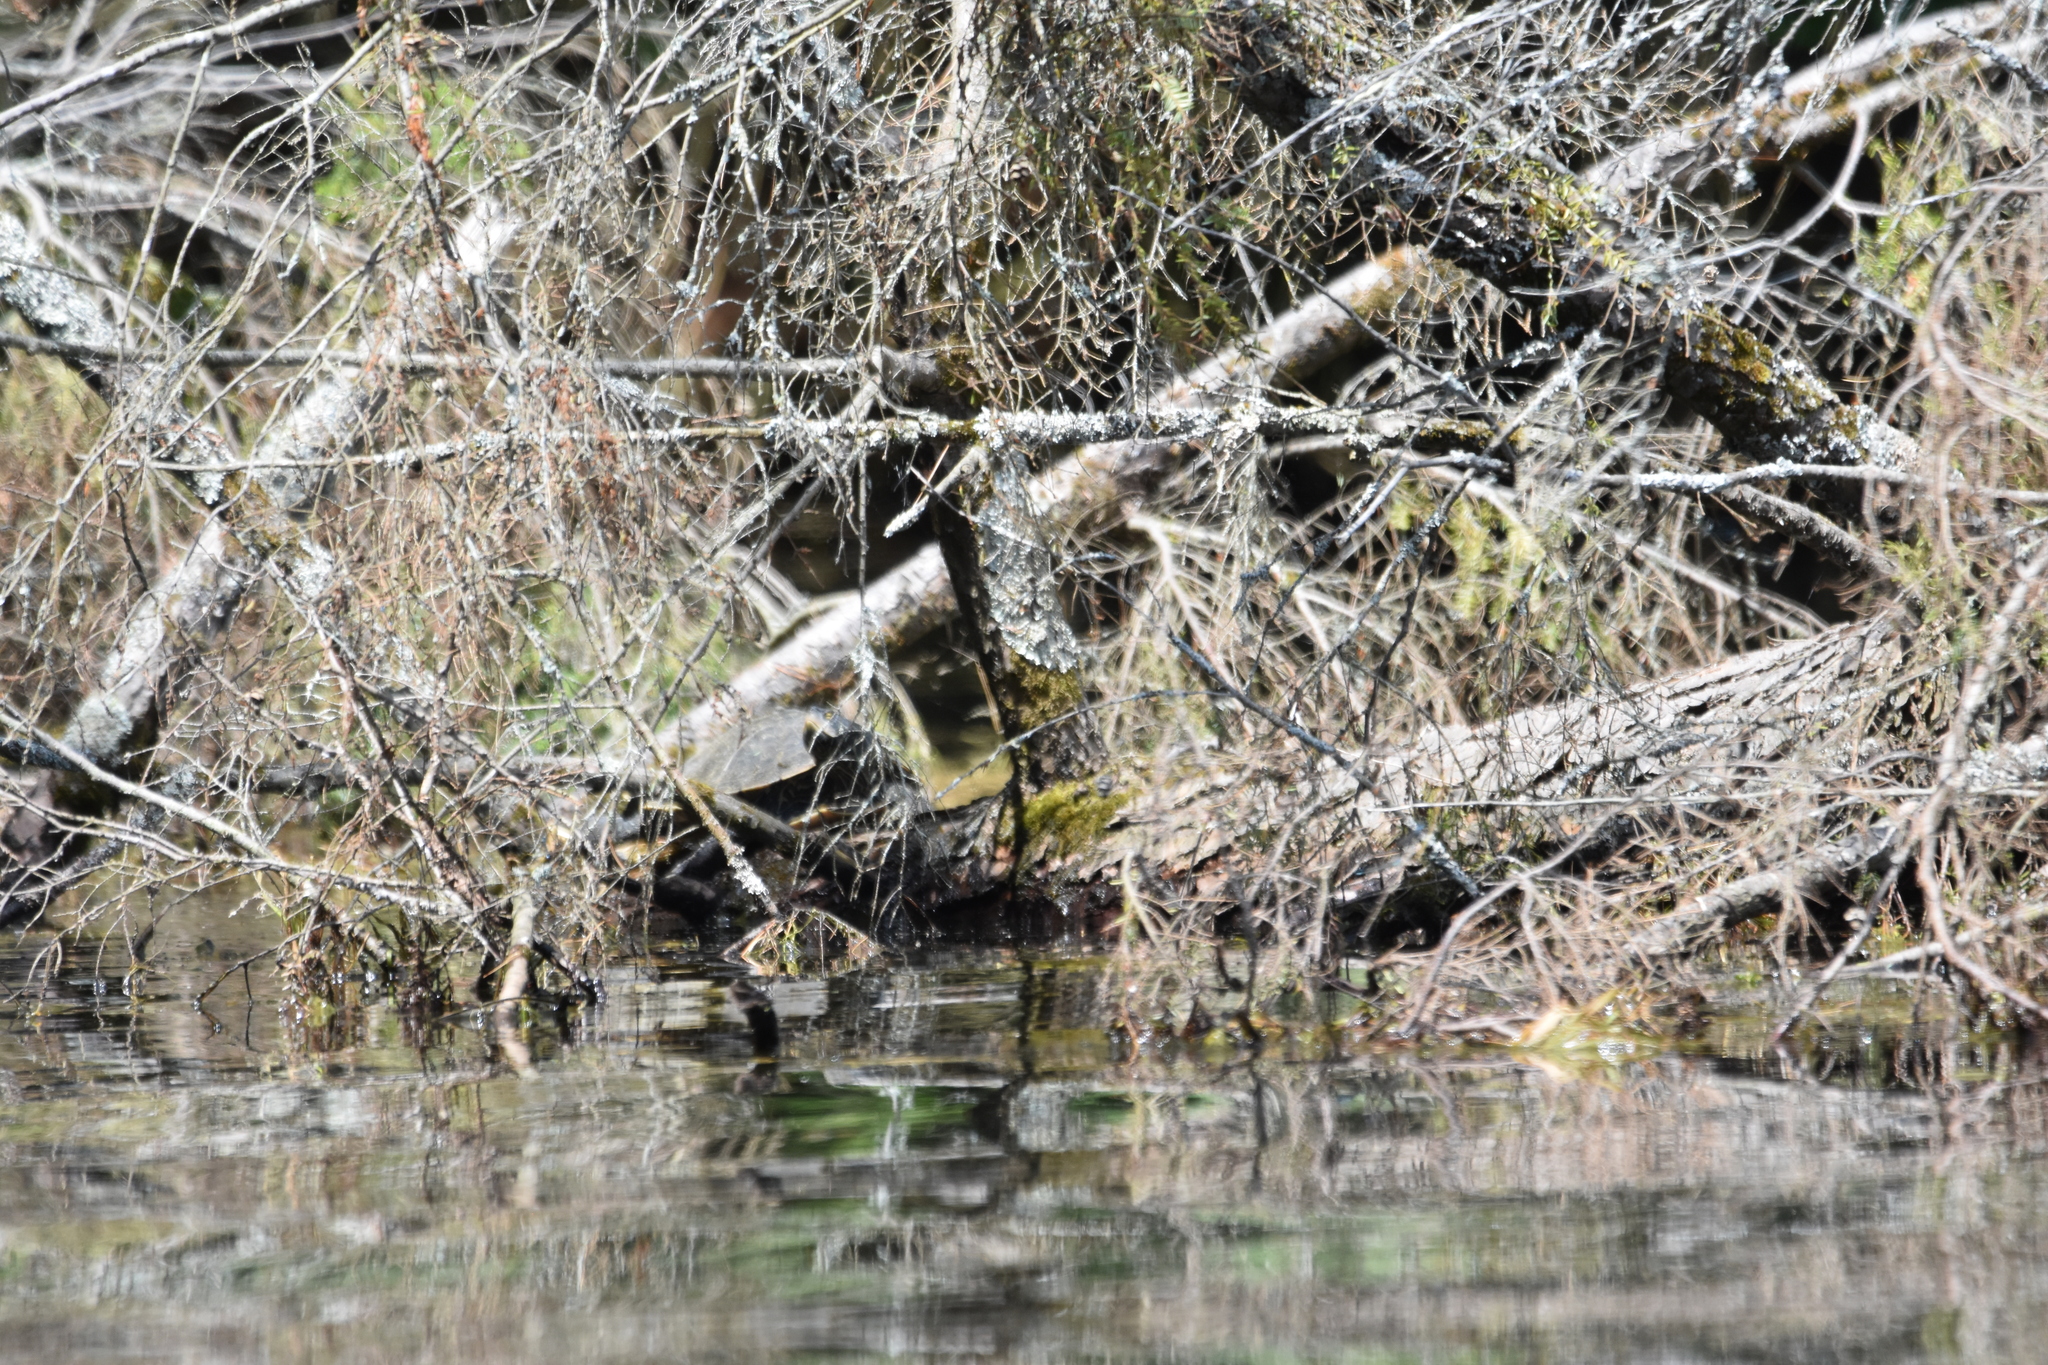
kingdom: Animalia
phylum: Chordata
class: Testudines
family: Emydidae
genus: Graptemys
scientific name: Graptemys geographica
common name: Common map turtle
